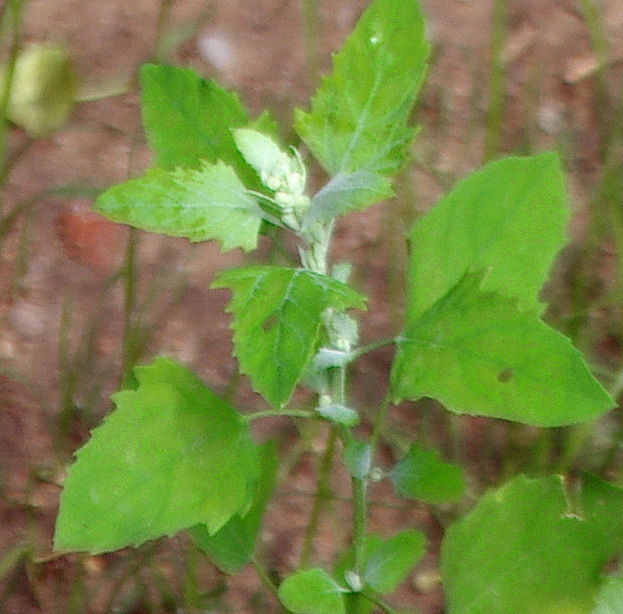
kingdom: Plantae
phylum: Tracheophyta
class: Magnoliopsida
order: Caryophyllales
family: Amaranthaceae
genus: Chenopodium
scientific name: Chenopodium album
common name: Fat-hen
